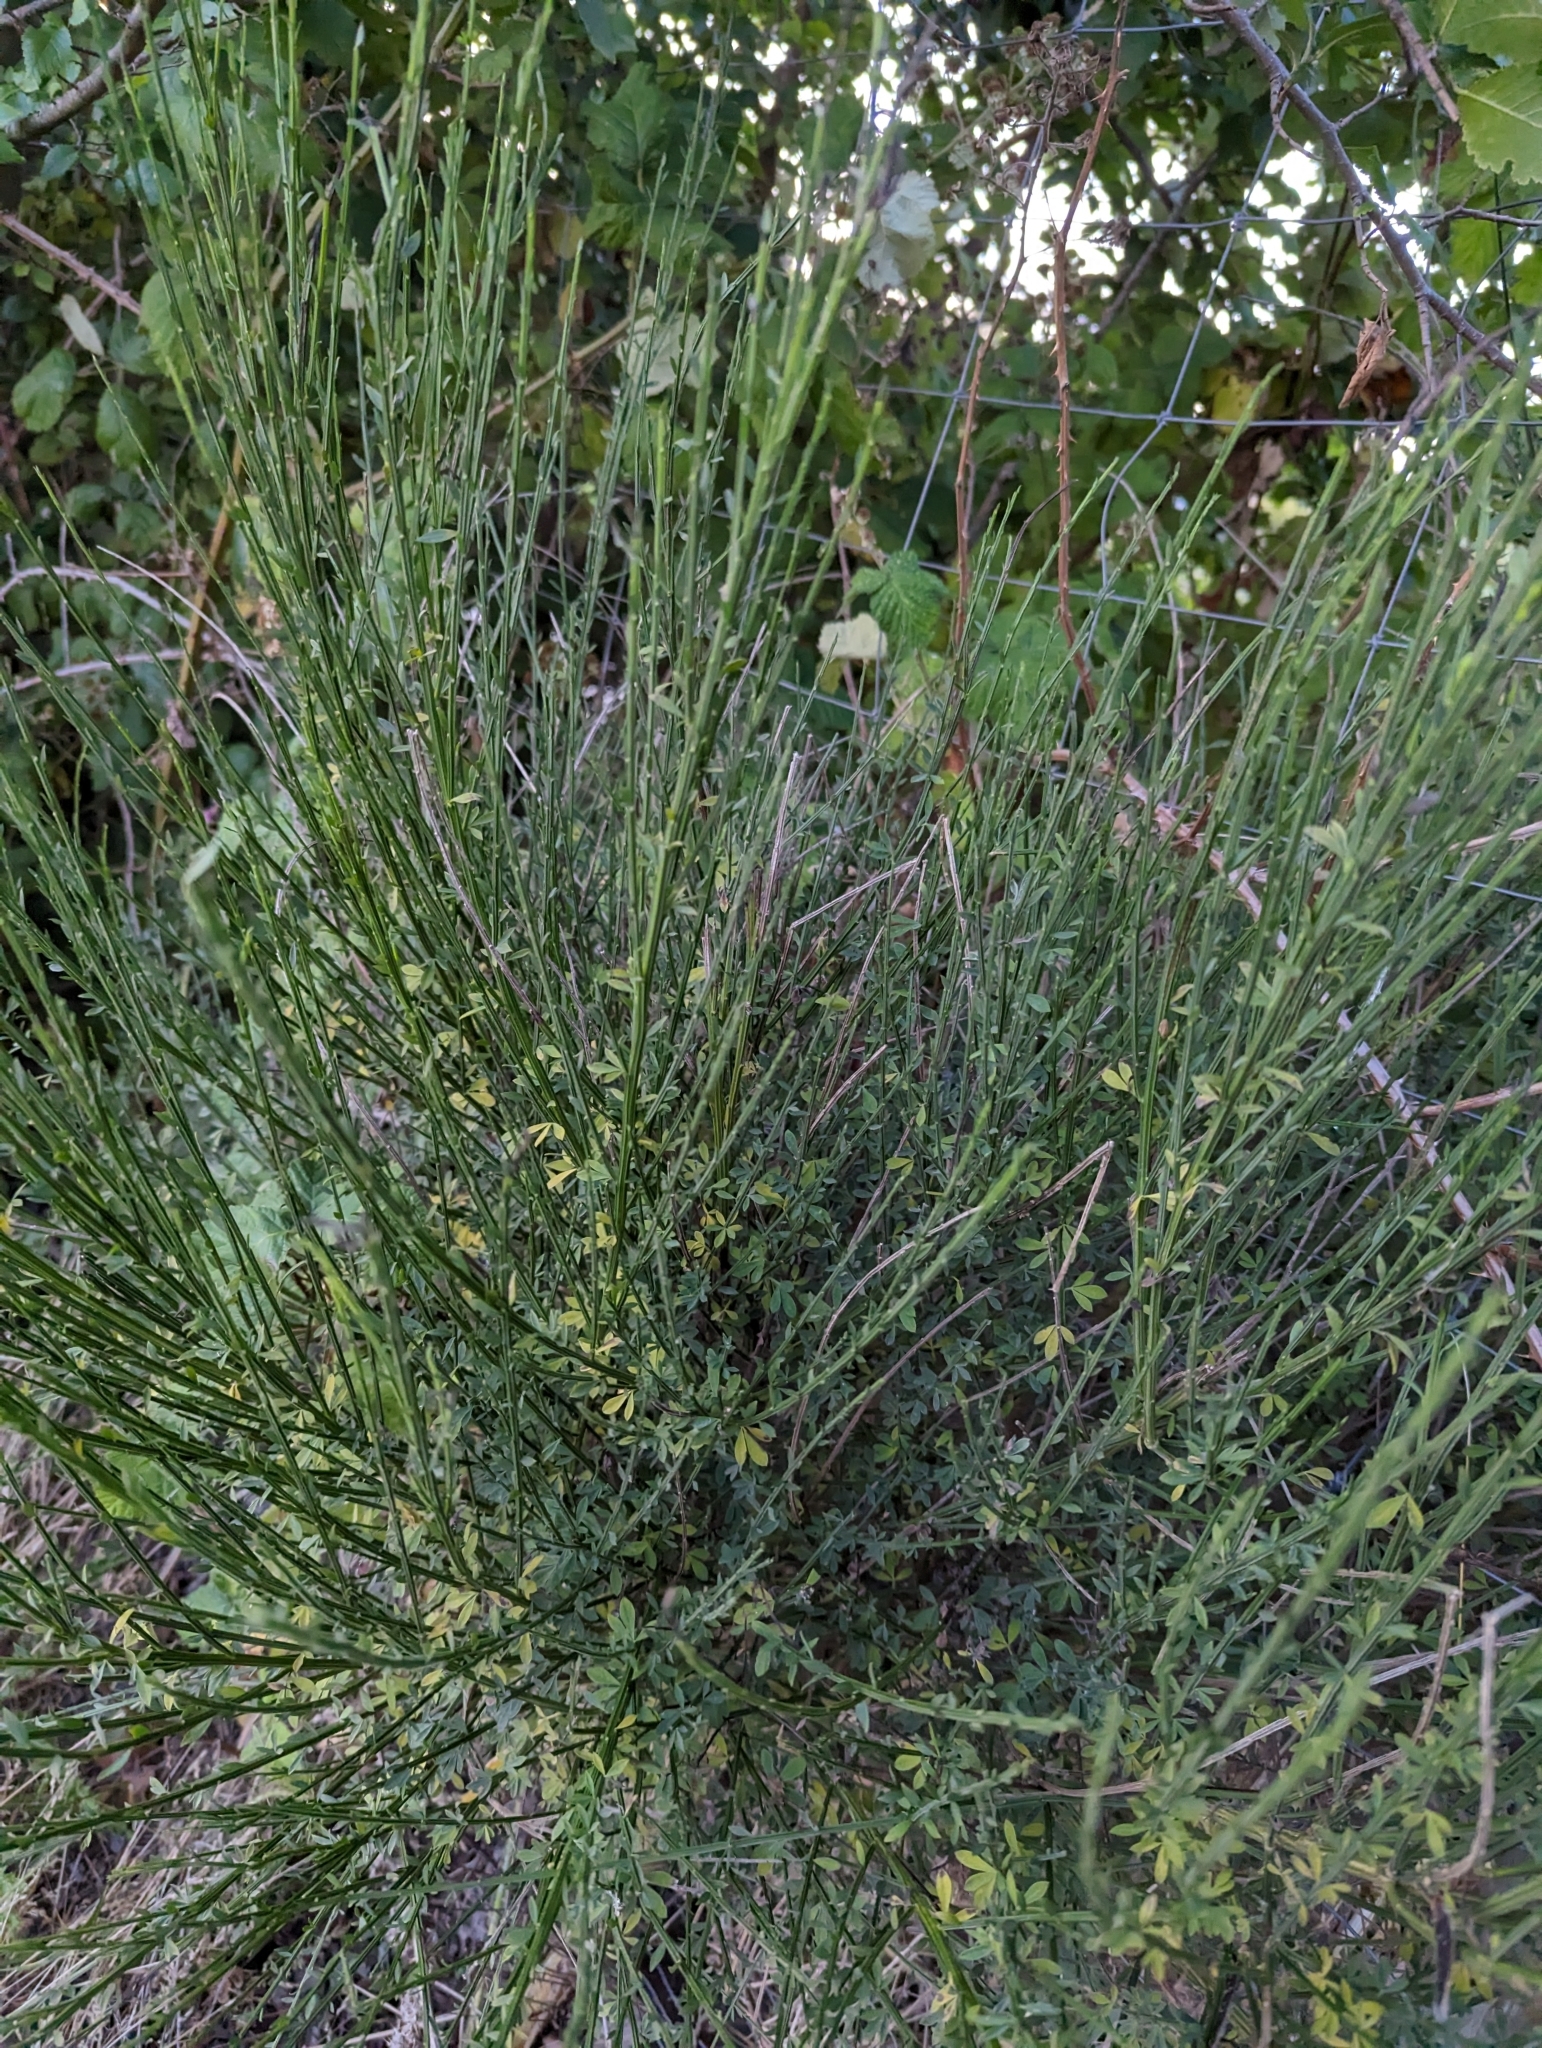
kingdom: Plantae
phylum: Tracheophyta
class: Magnoliopsida
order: Fabales
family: Fabaceae
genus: Cytisus
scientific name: Cytisus scoparius
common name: Scotch broom
